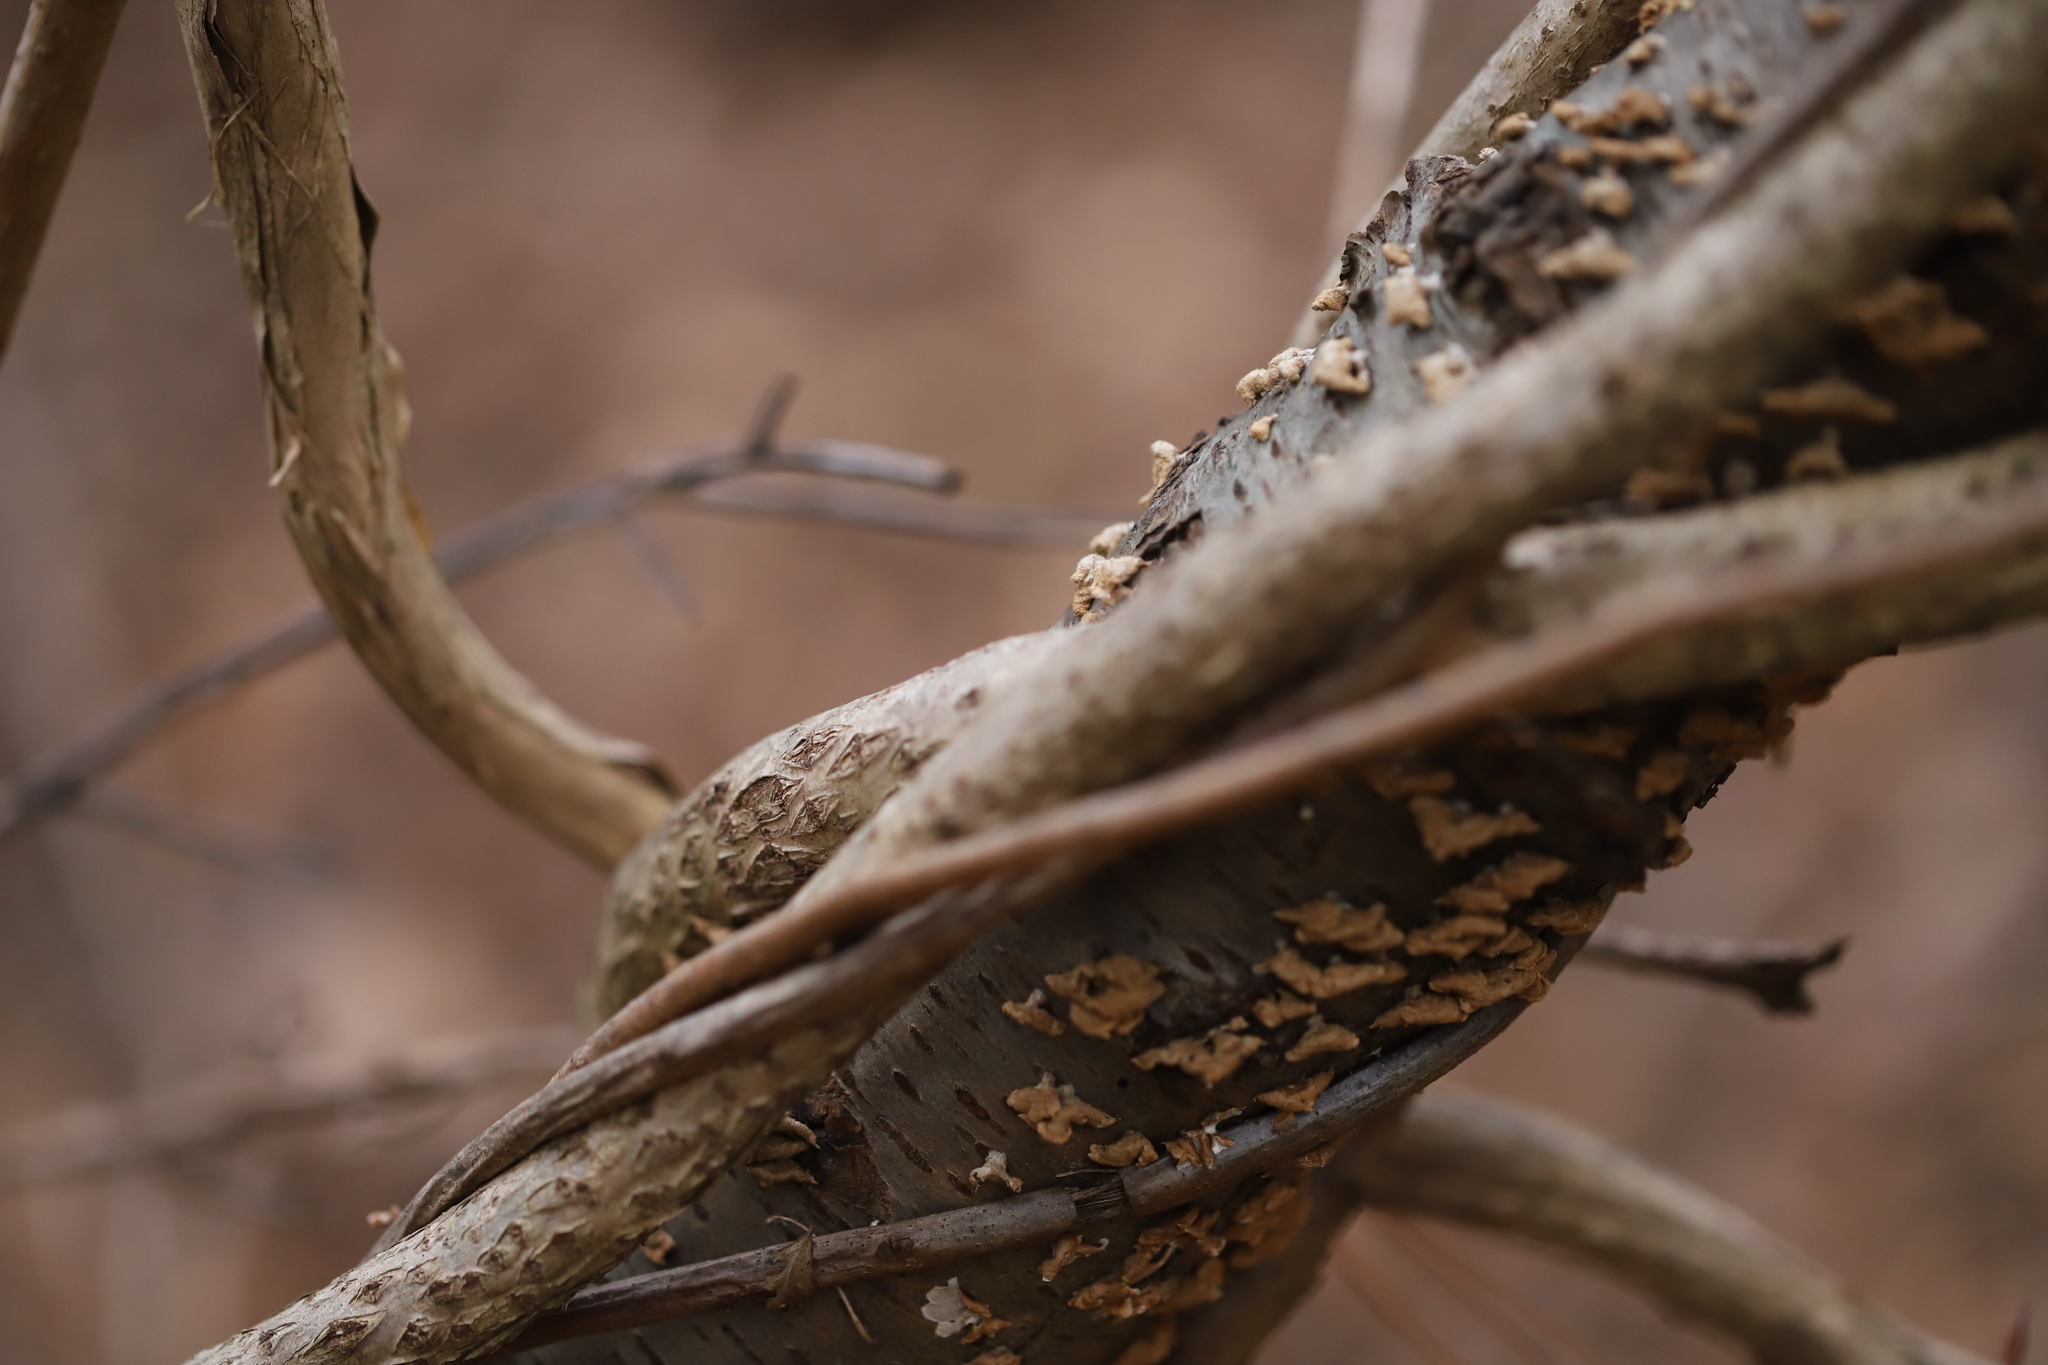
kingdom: Plantae
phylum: Tracheophyta
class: Magnoliopsida
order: Dipsacales
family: Caprifoliaceae
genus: Lonicera
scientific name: Lonicera japonica
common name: Japanese honeysuckle
